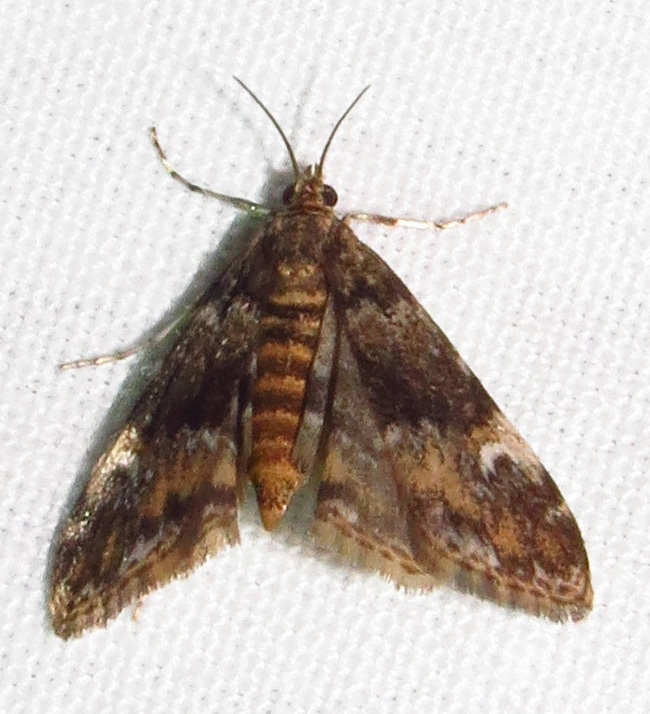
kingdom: Animalia
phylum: Arthropoda
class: Insecta
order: Lepidoptera
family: Crambidae
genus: Elophila
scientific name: Elophila obliteralis
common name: Waterlily leafcutter moth
